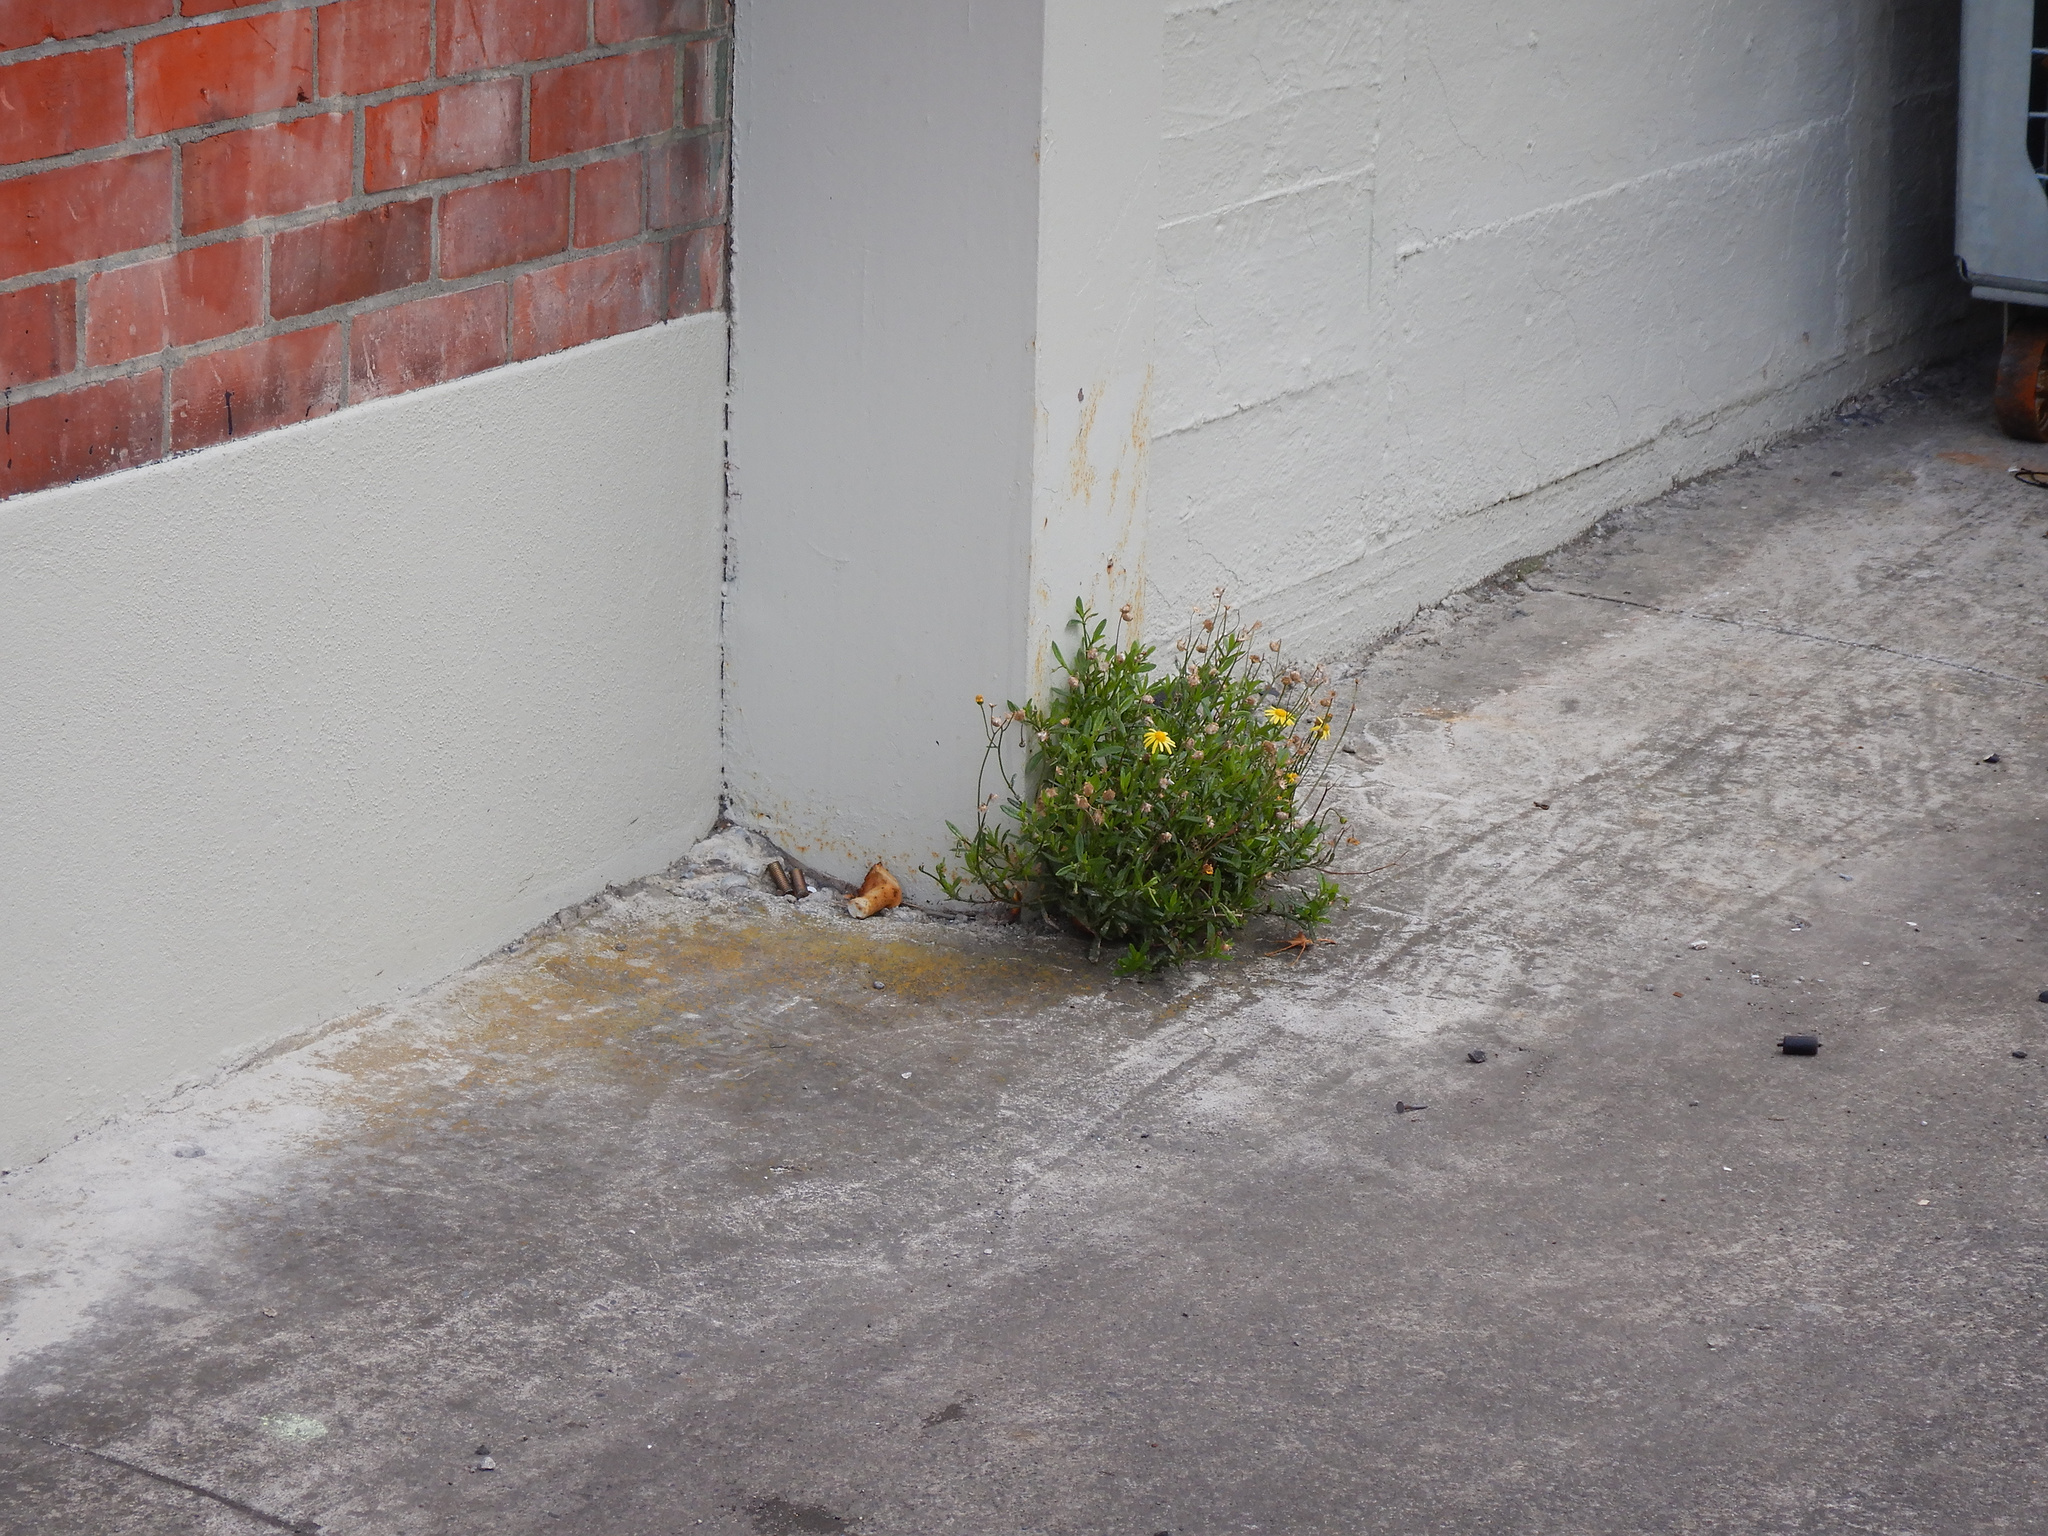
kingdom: Plantae
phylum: Tracheophyta
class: Magnoliopsida
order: Asterales
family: Asteraceae
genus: Senecio
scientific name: Senecio skirrhodon
